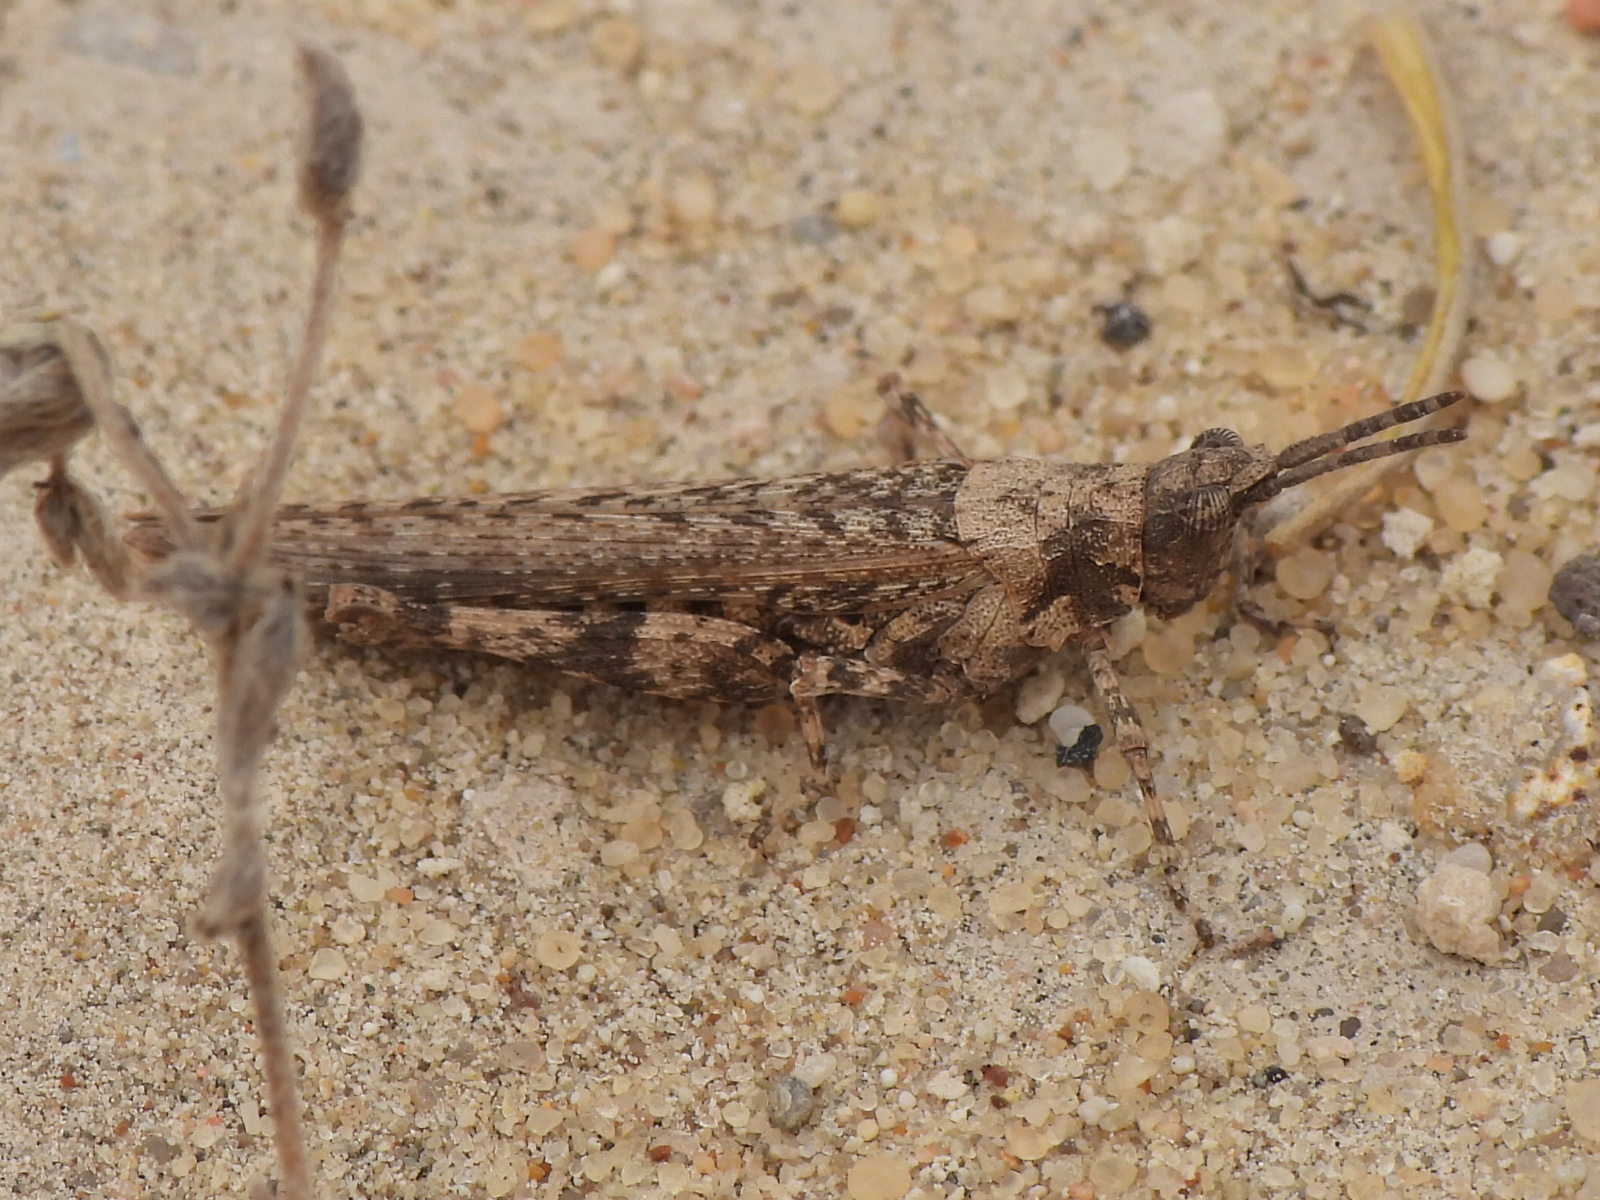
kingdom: Animalia
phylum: Arthropoda
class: Insecta
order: Orthoptera
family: Pyrgomorphidae
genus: Pyrgomorpha
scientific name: Pyrgomorpha conica
